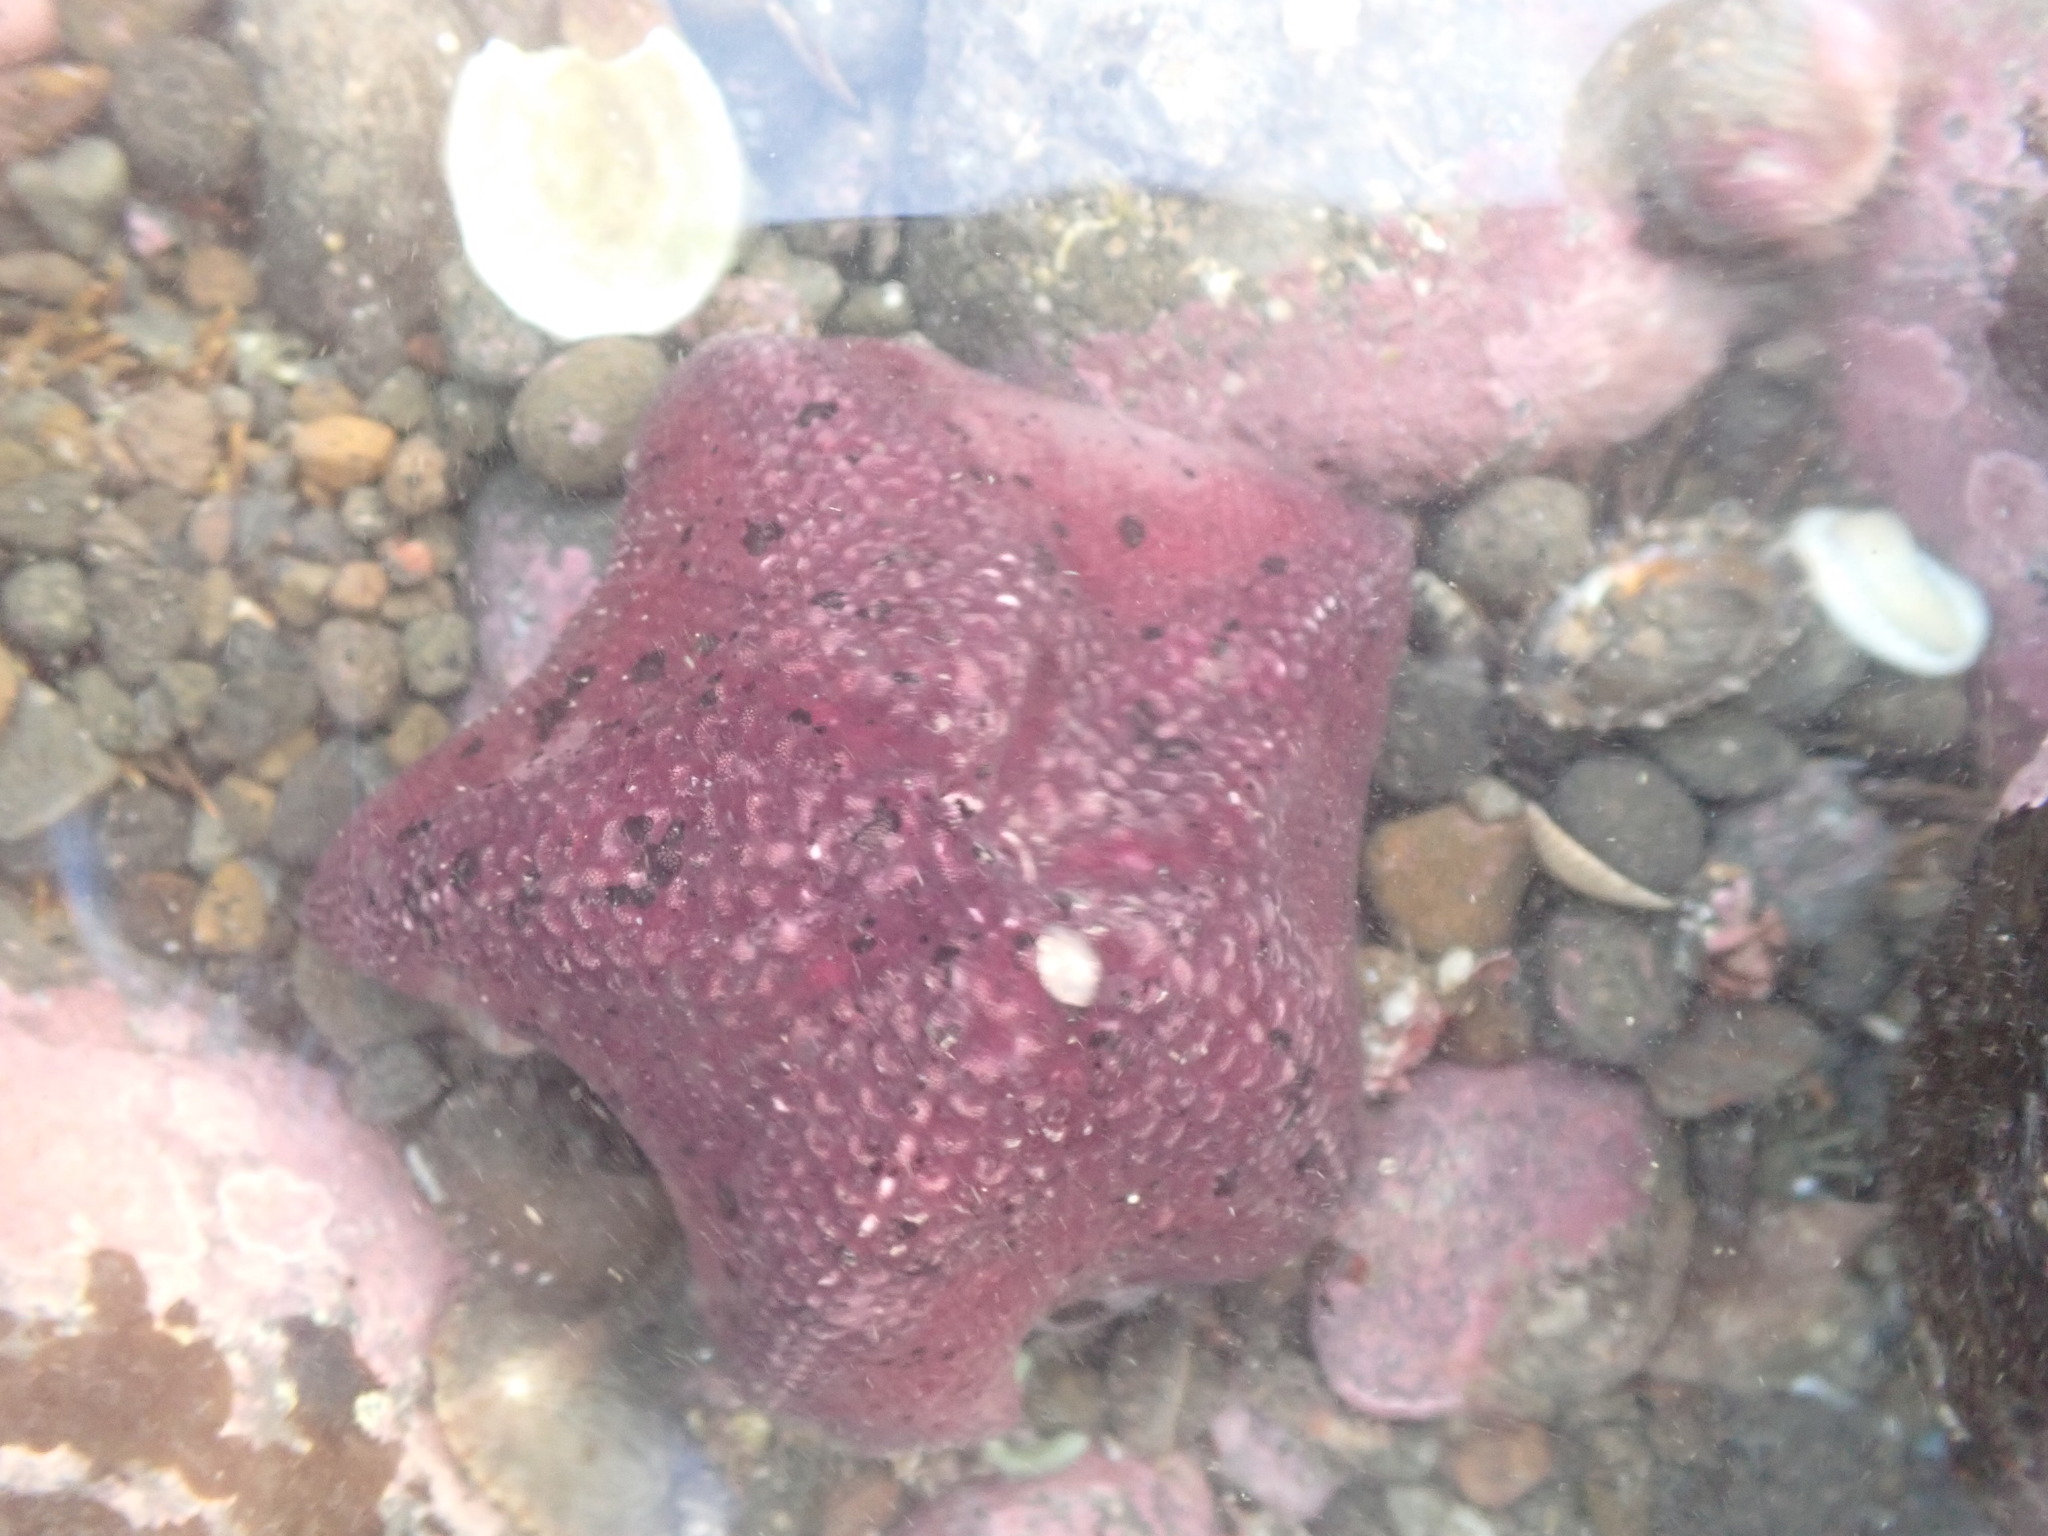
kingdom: Animalia
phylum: Echinodermata
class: Asteroidea
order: Valvatida
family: Asterinidae
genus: Stegnaster
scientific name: Stegnaster inflatus
